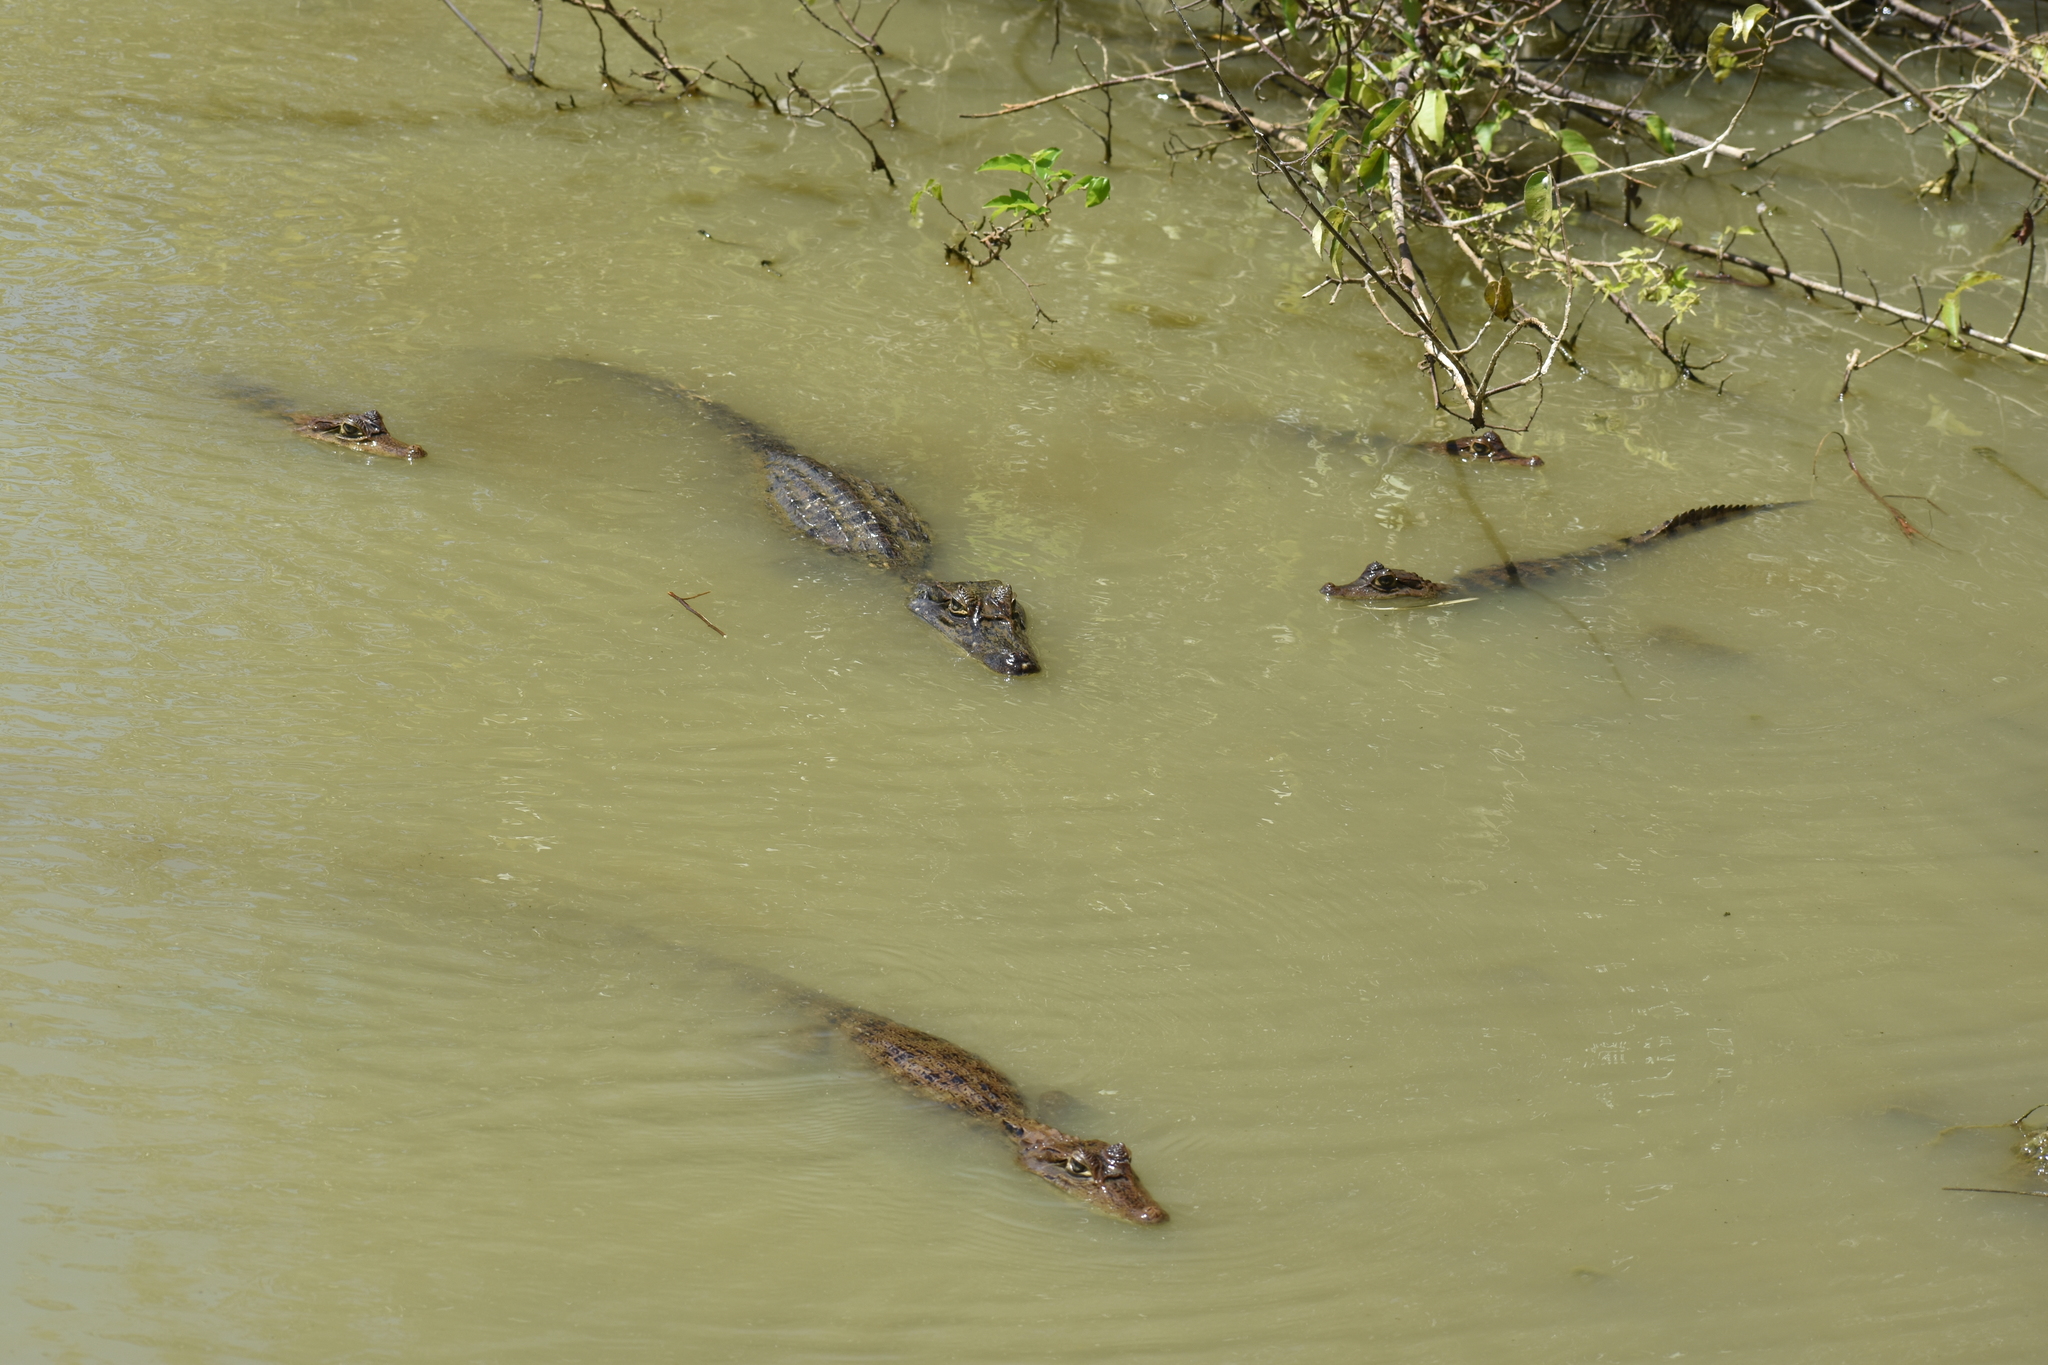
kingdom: Animalia
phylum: Chordata
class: Crocodylia
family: Alligatoridae
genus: Caiman
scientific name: Caiman crocodilus
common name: Common caiman
